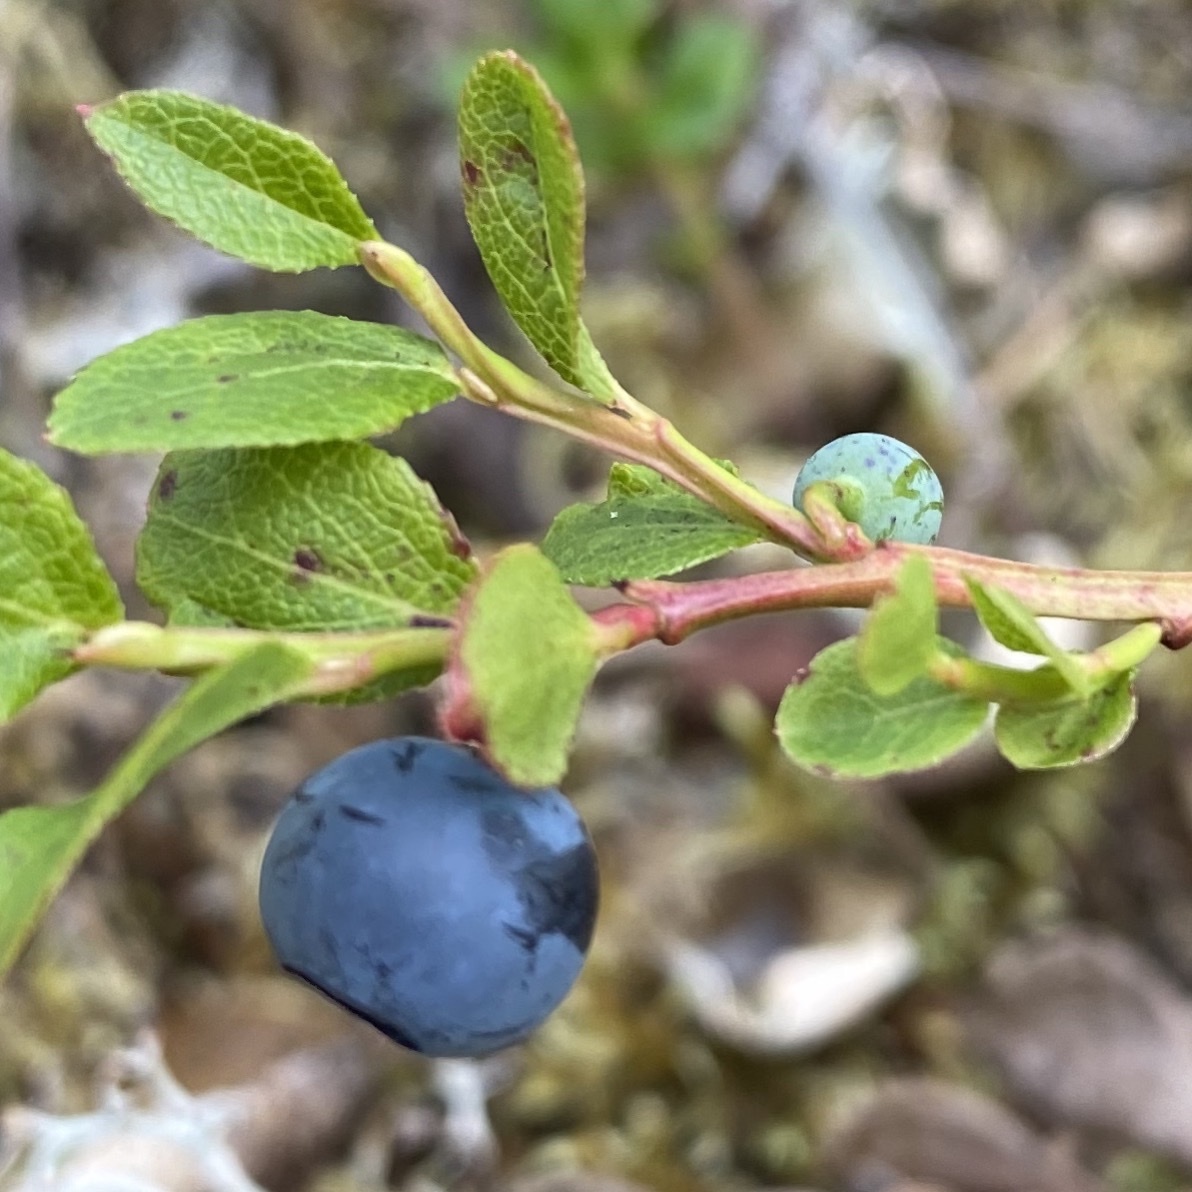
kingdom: Plantae
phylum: Tracheophyta
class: Magnoliopsida
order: Ericales
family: Ericaceae
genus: Vaccinium
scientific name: Vaccinium myrtillus
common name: Bilberry
